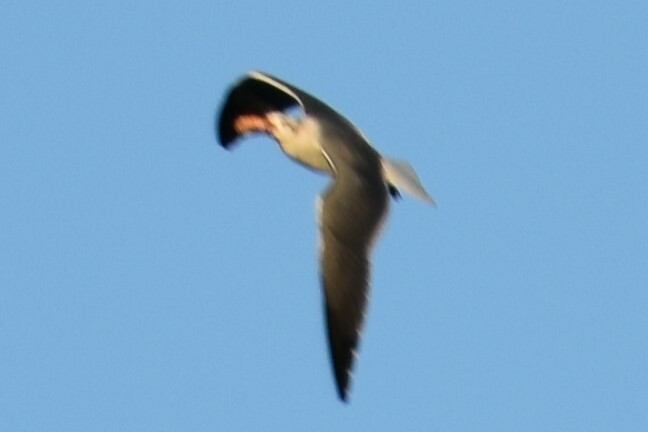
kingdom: Animalia
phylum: Chordata
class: Aves
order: Charadriiformes
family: Laridae
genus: Leucophaeus
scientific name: Leucophaeus atricilla
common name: Laughing gull
